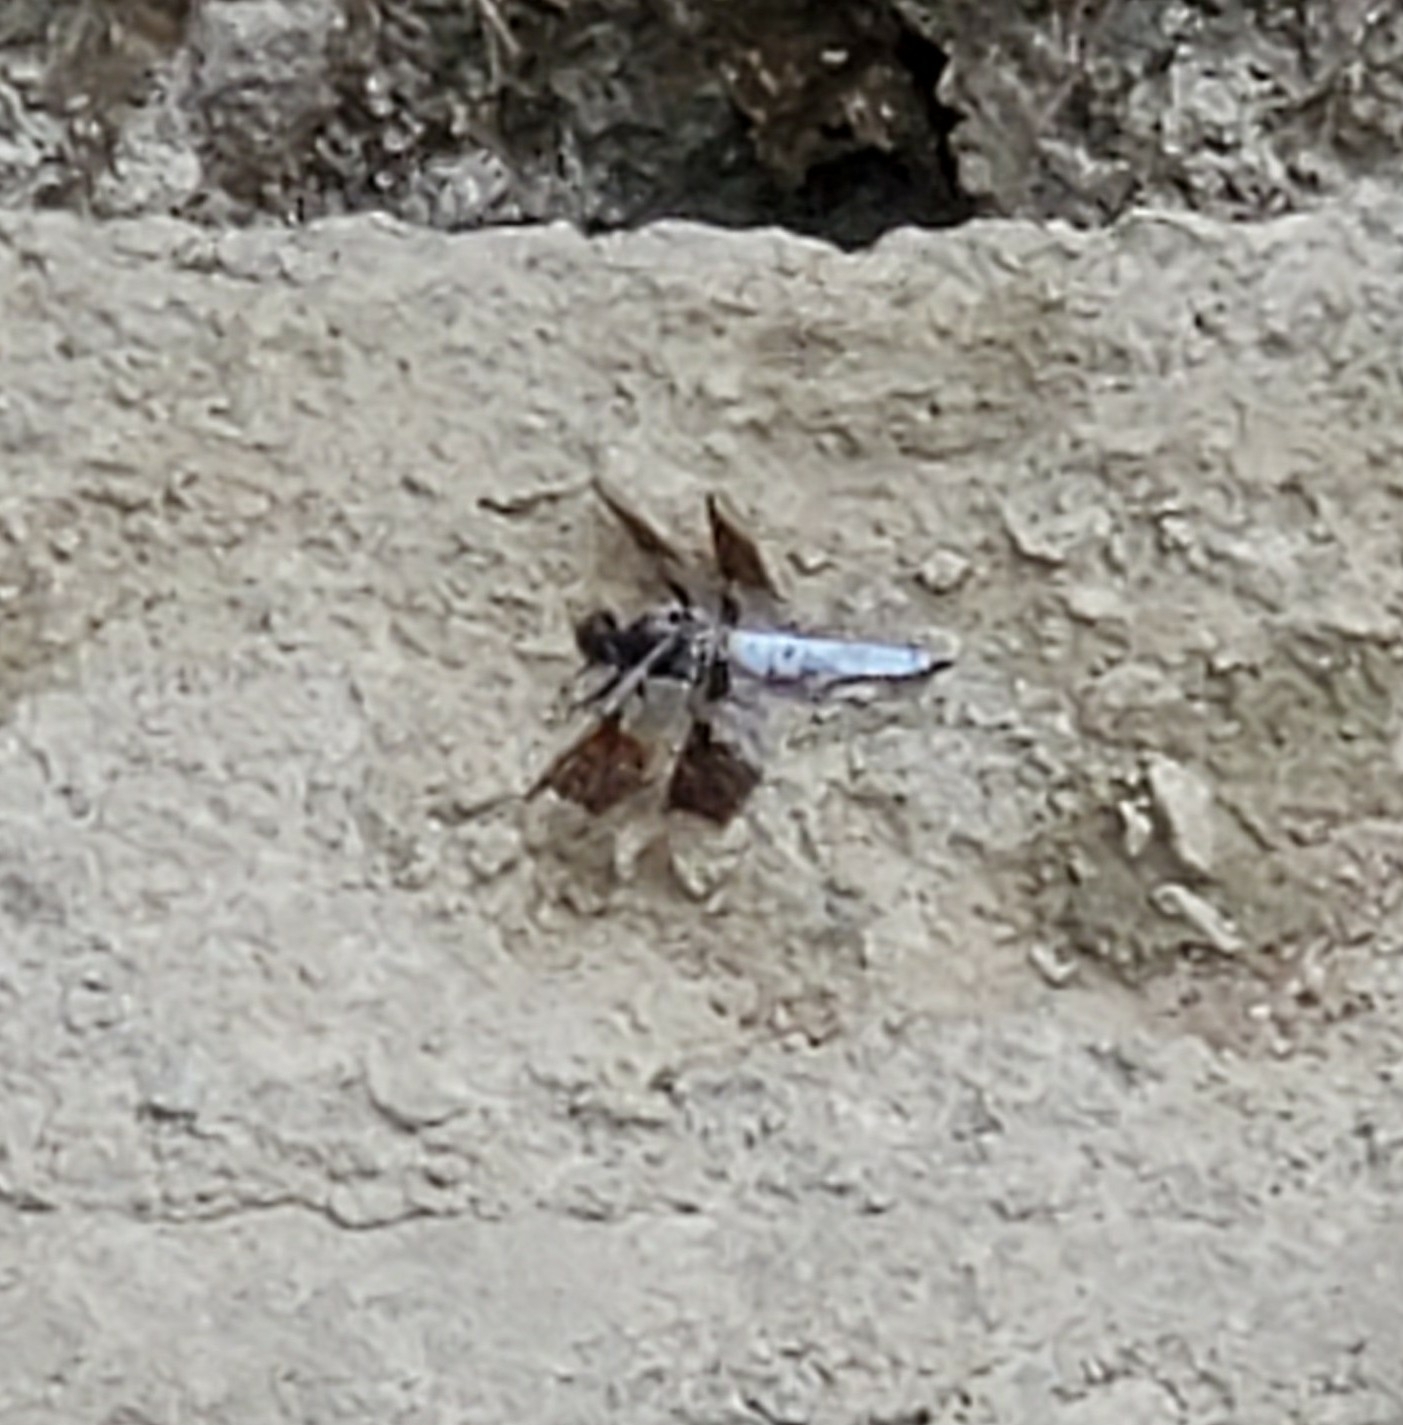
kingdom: Animalia
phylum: Arthropoda
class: Insecta
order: Odonata
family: Libellulidae
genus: Plathemis
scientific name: Plathemis lydia
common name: Common whitetail
